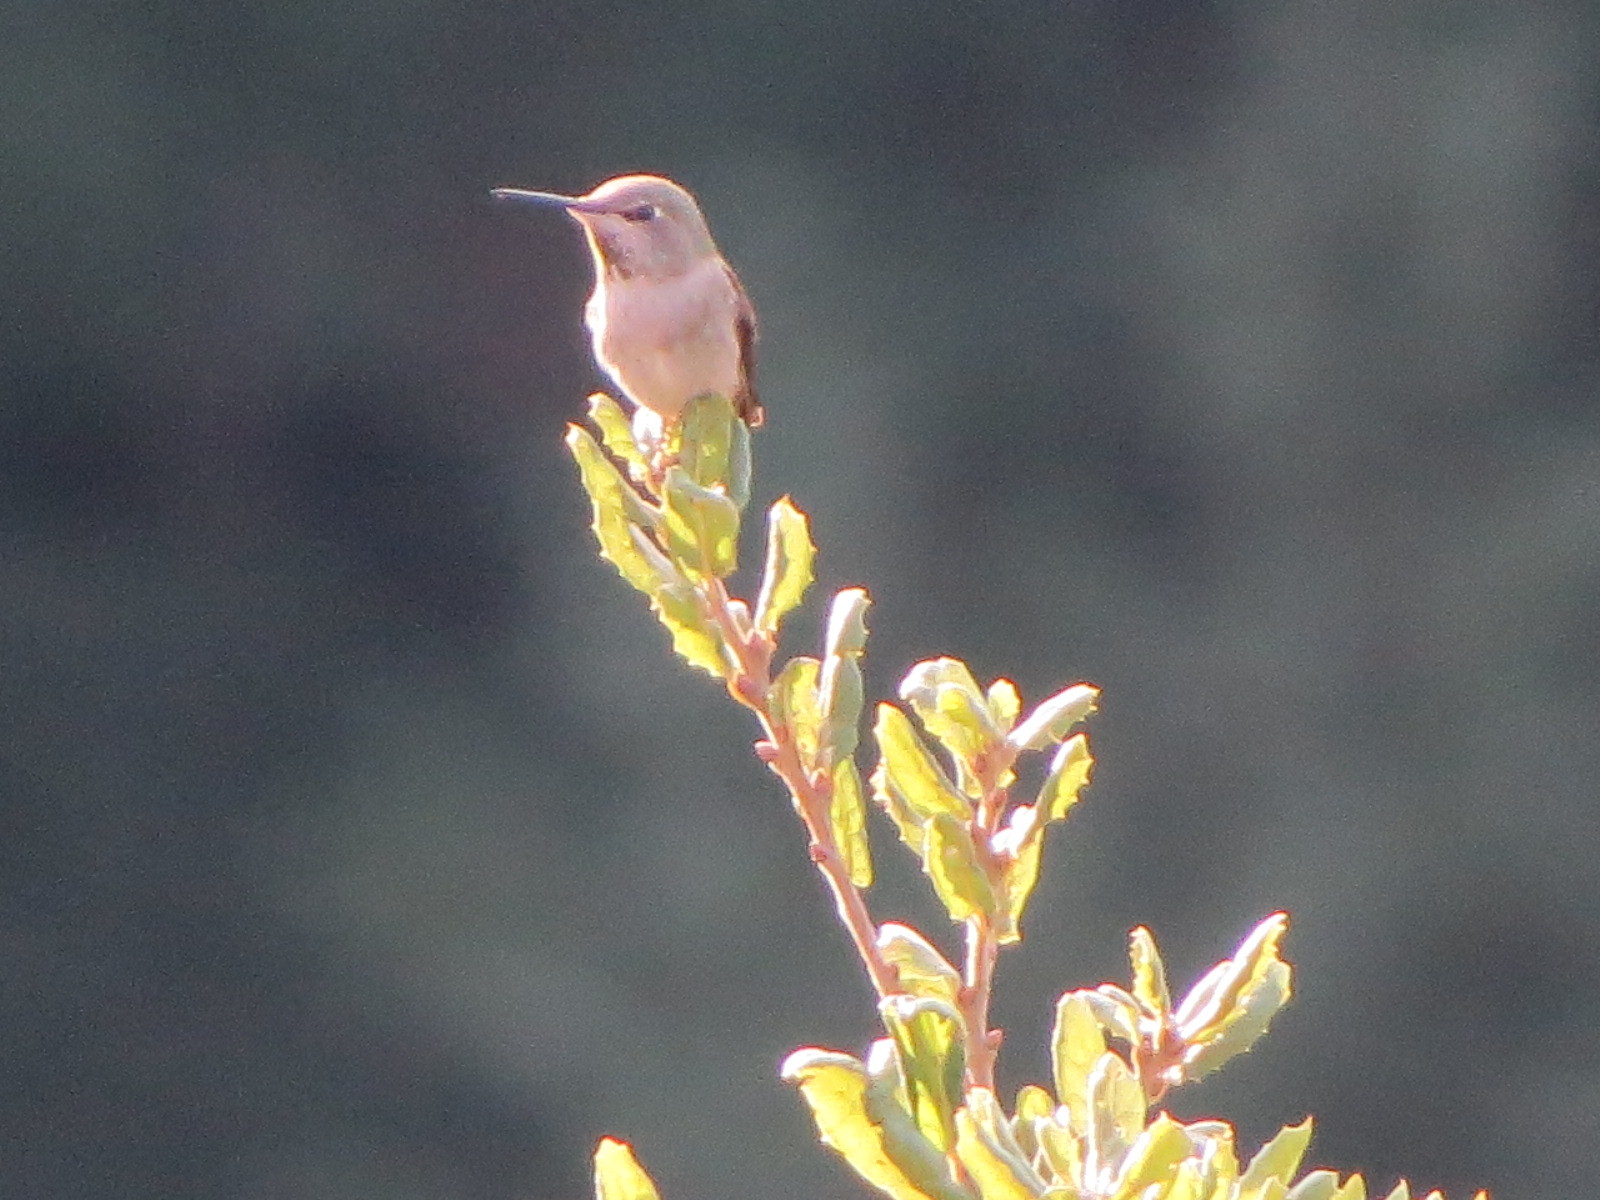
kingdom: Animalia
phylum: Chordata
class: Aves
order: Apodiformes
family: Trochilidae
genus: Calypte
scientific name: Calypte anna
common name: Anna's hummingbird
